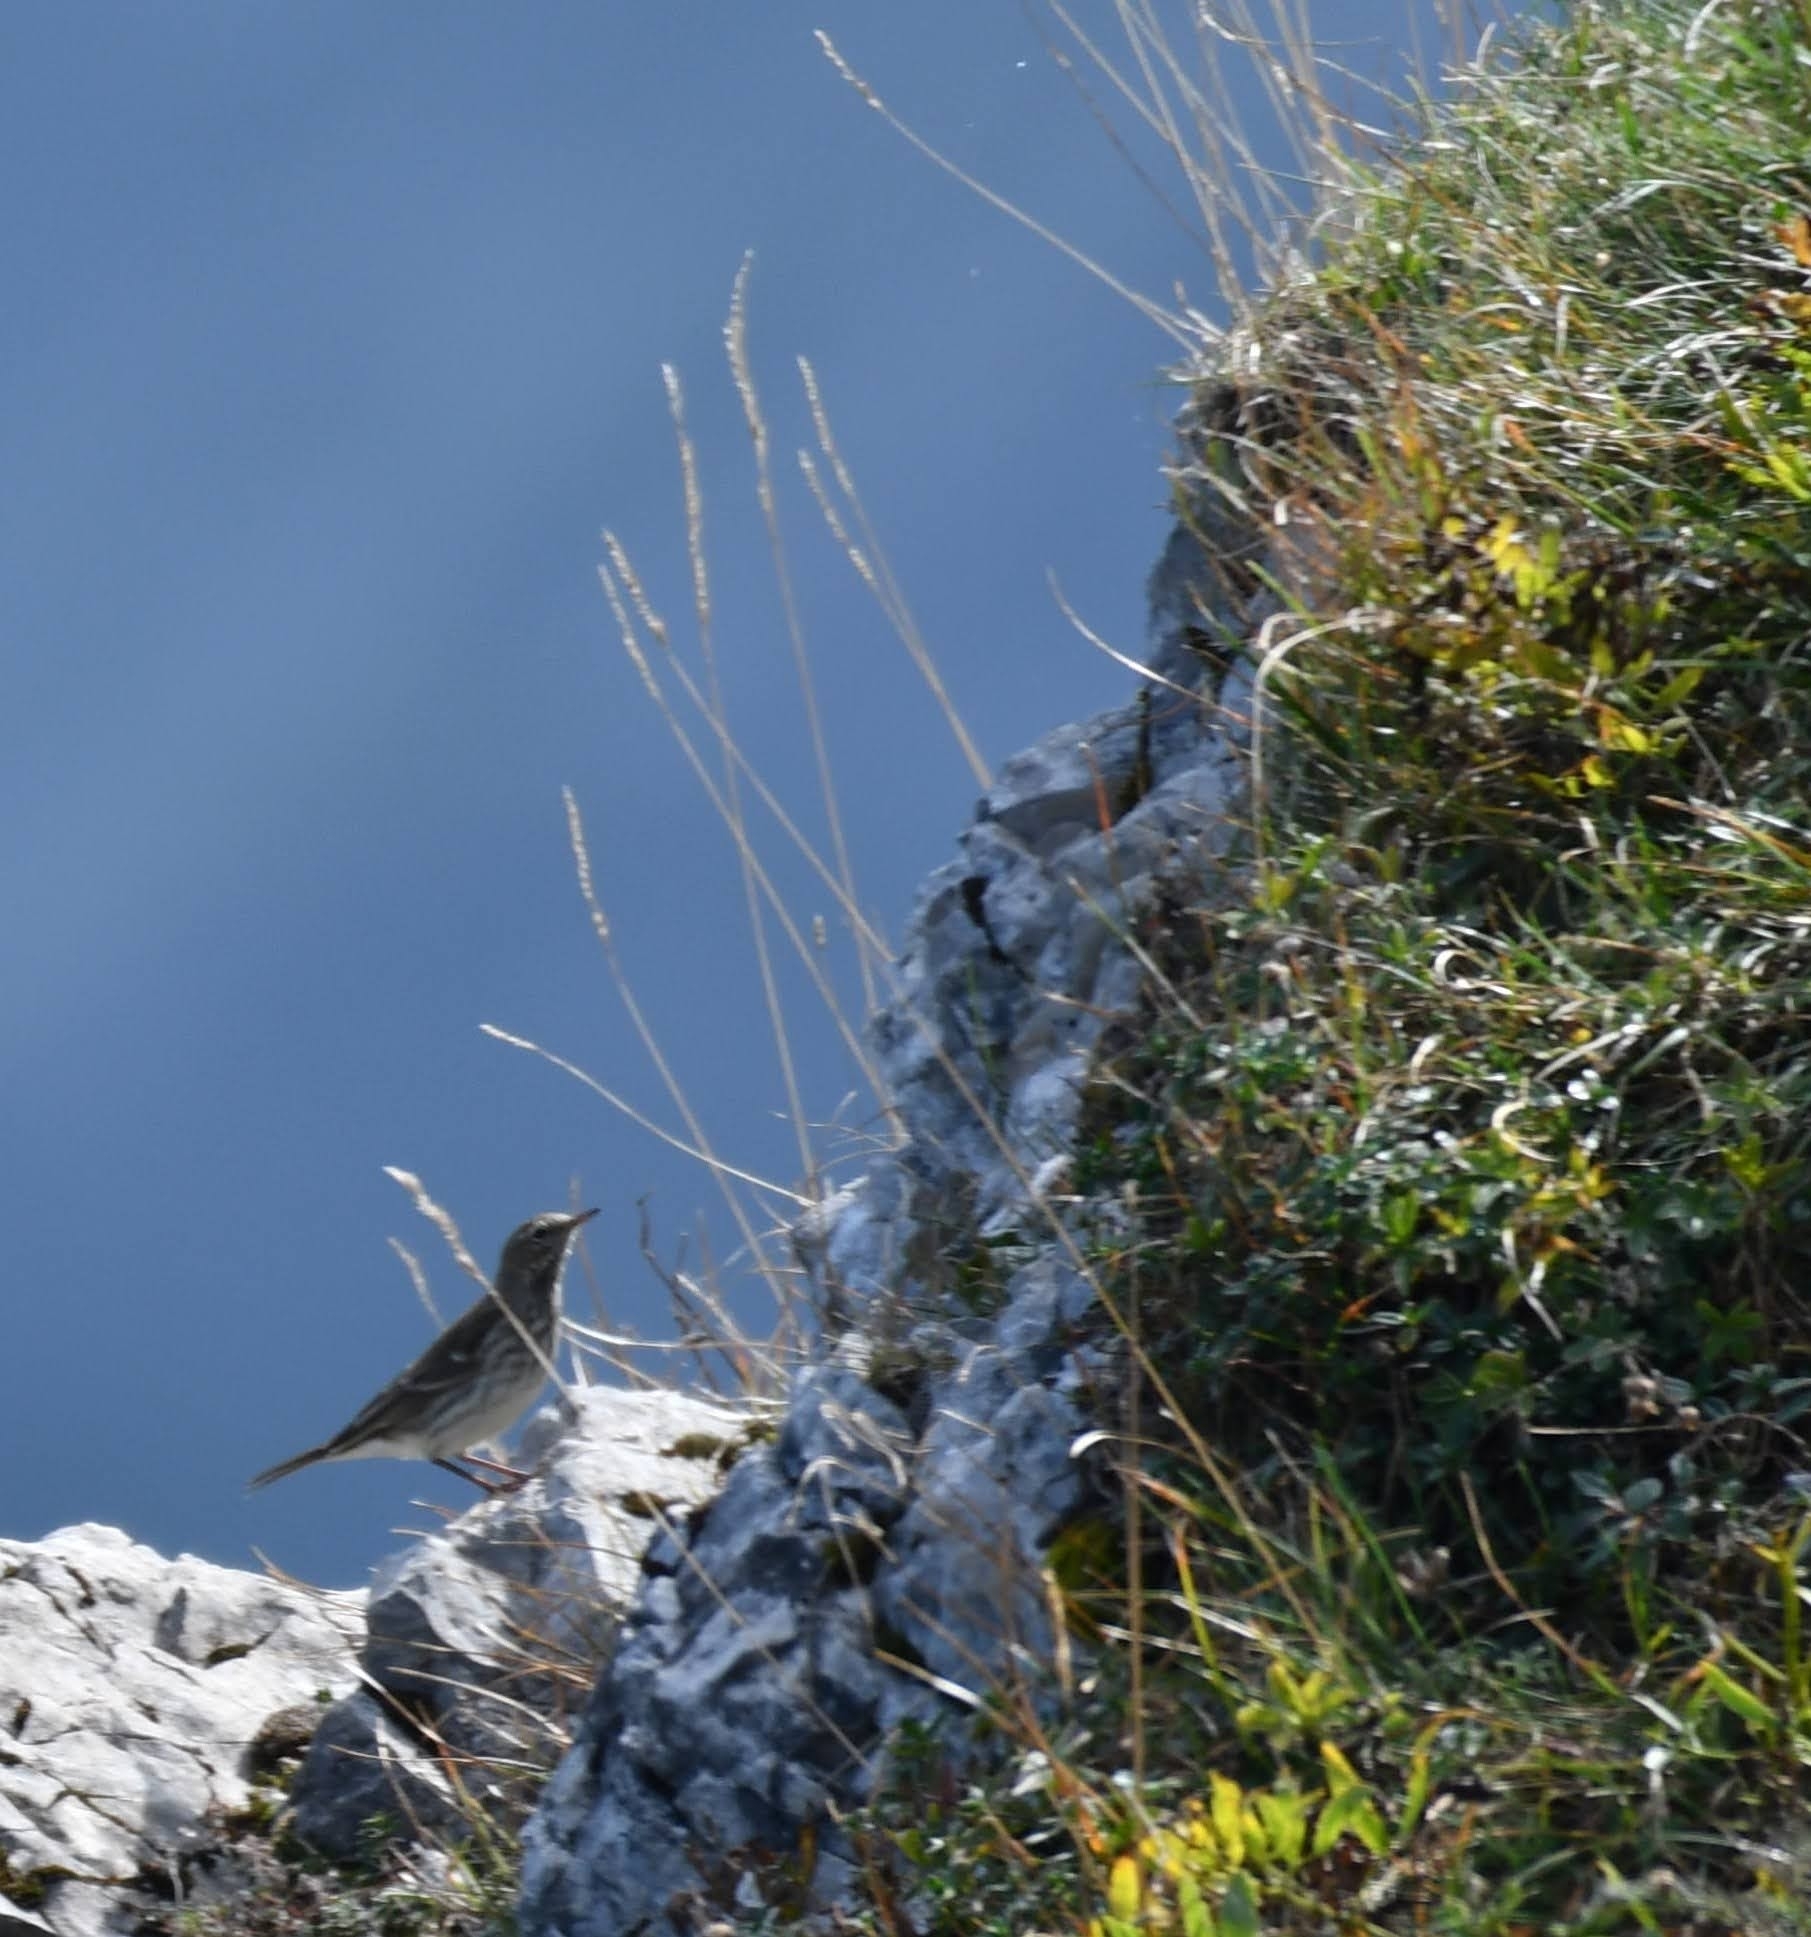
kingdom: Animalia
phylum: Chordata
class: Aves
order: Passeriformes
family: Motacillidae
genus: Anthus
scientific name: Anthus spinoletta
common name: Water pipit
